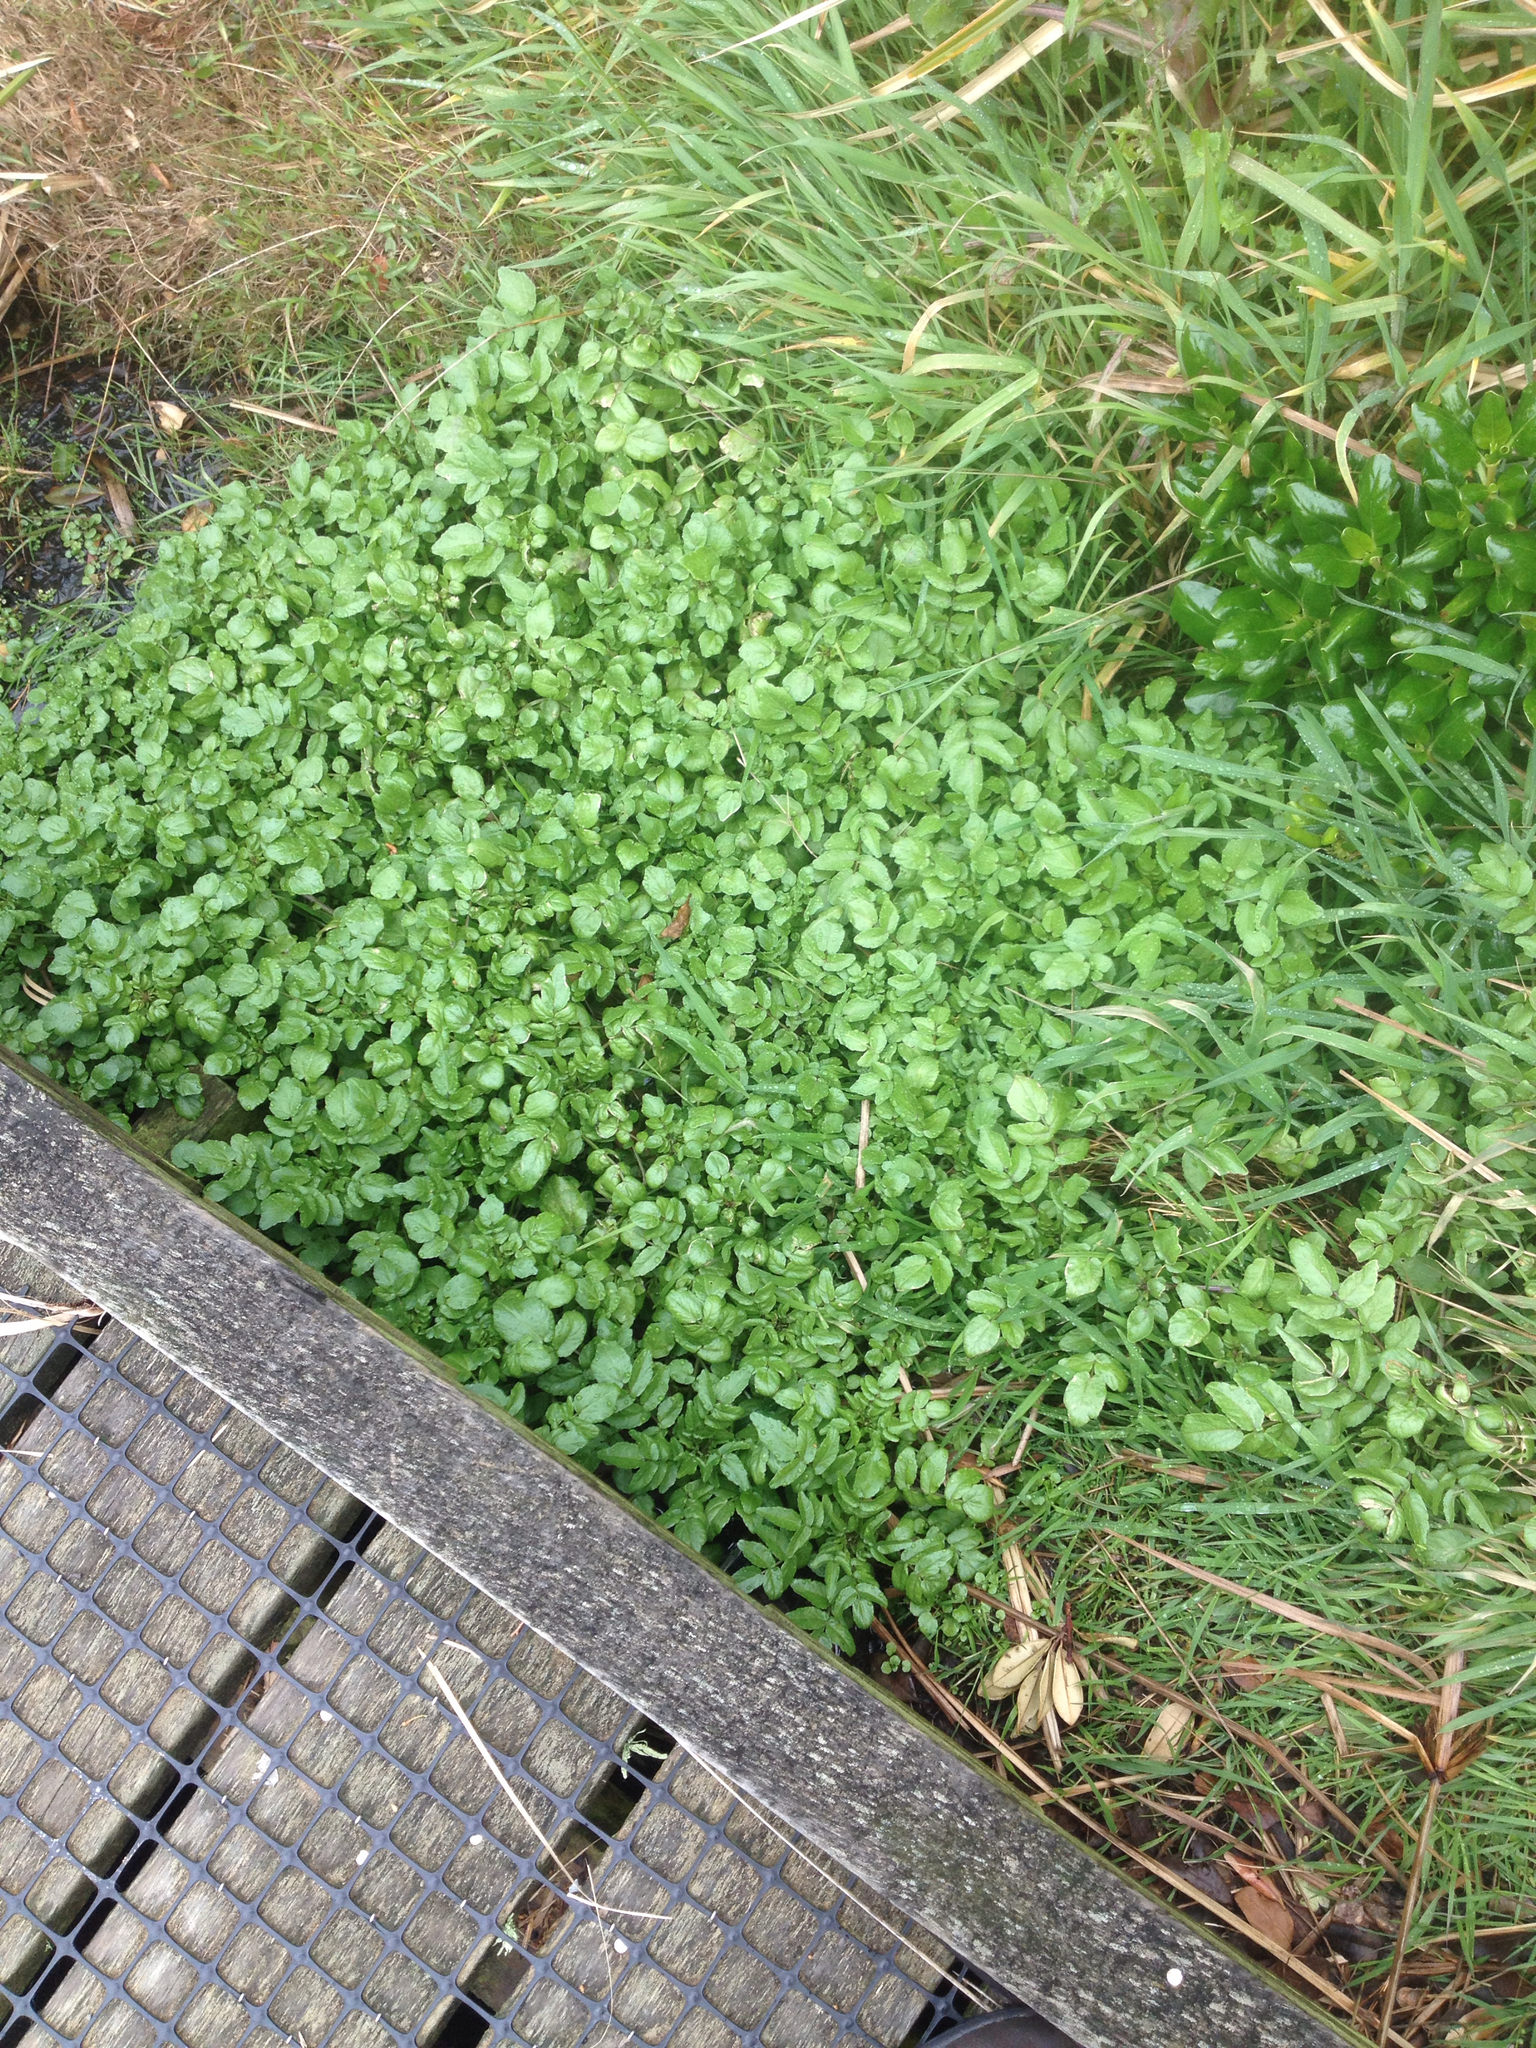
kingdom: Plantae
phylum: Tracheophyta
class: Magnoliopsida
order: Brassicales
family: Brassicaceae
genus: Nasturtium
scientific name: Nasturtium officinale
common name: Watercress
